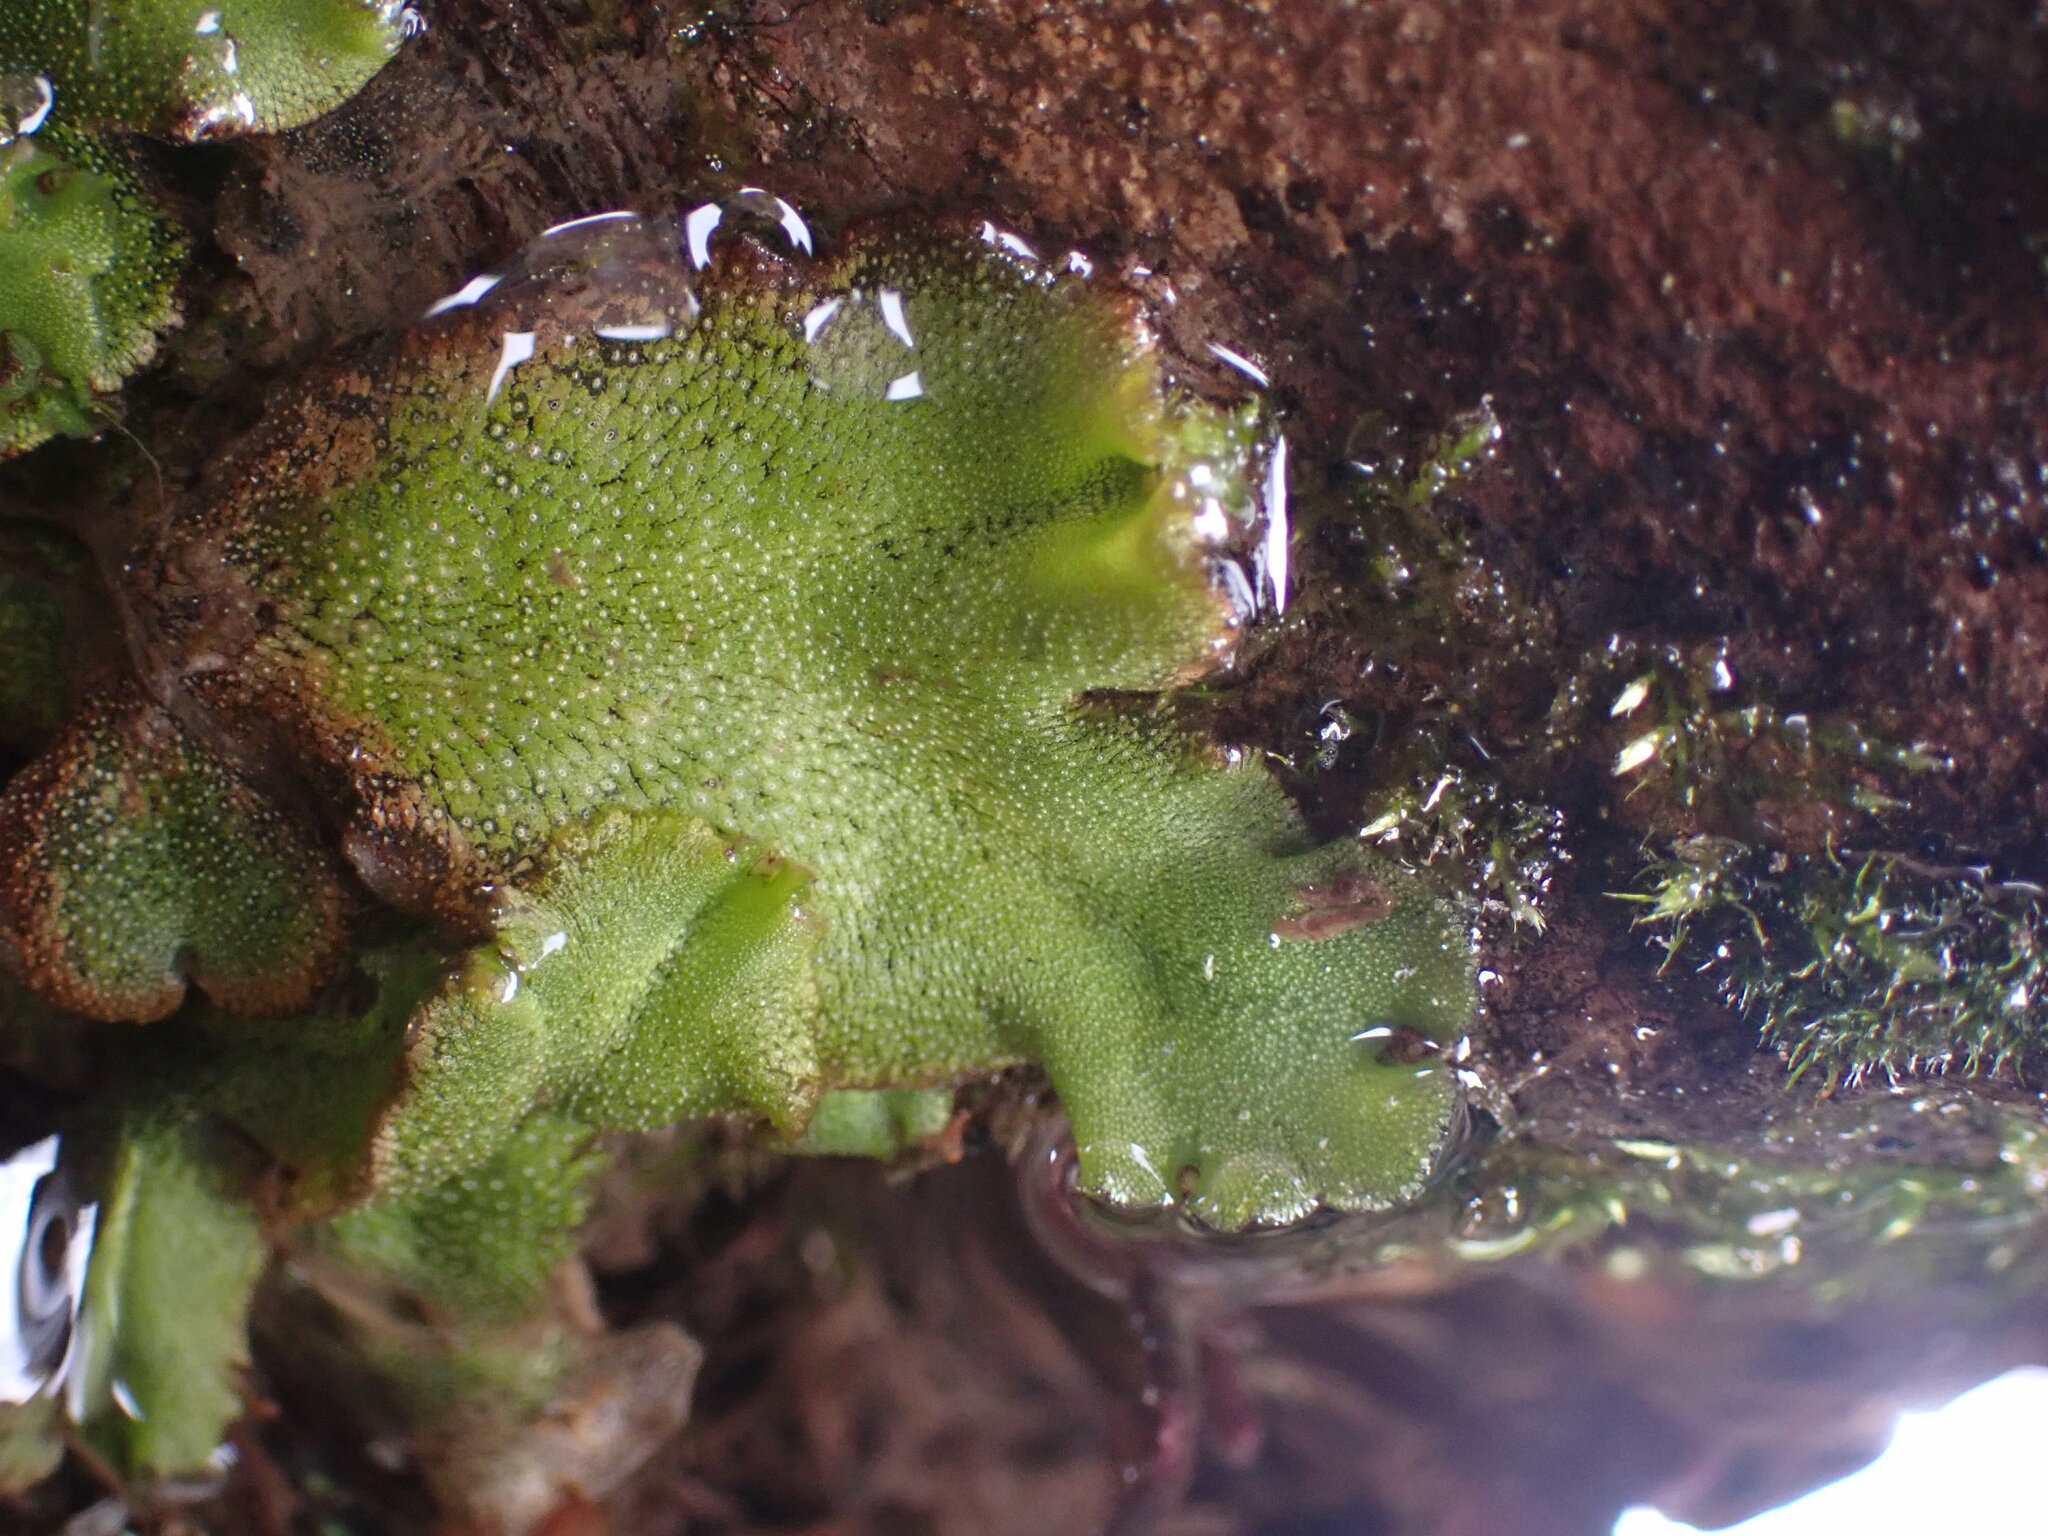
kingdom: Plantae
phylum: Marchantiophyta
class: Marchantiopsida
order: Marchantiales
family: Marchantiaceae
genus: Marchantia
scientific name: Marchantia polymorpha
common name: Common liverwort
